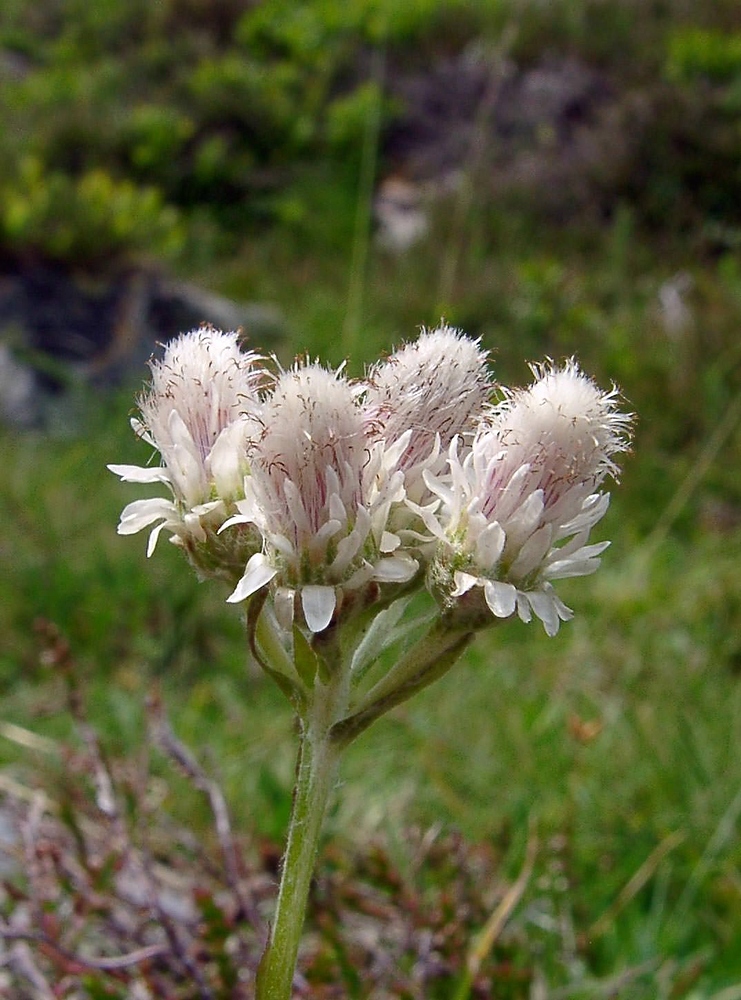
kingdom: Plantae
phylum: Tracheophyta
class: Magnoliopsida
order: Asterales
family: Asteraceae
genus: Antennaria
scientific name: Antennaria dioica
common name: Mountain everlasting
